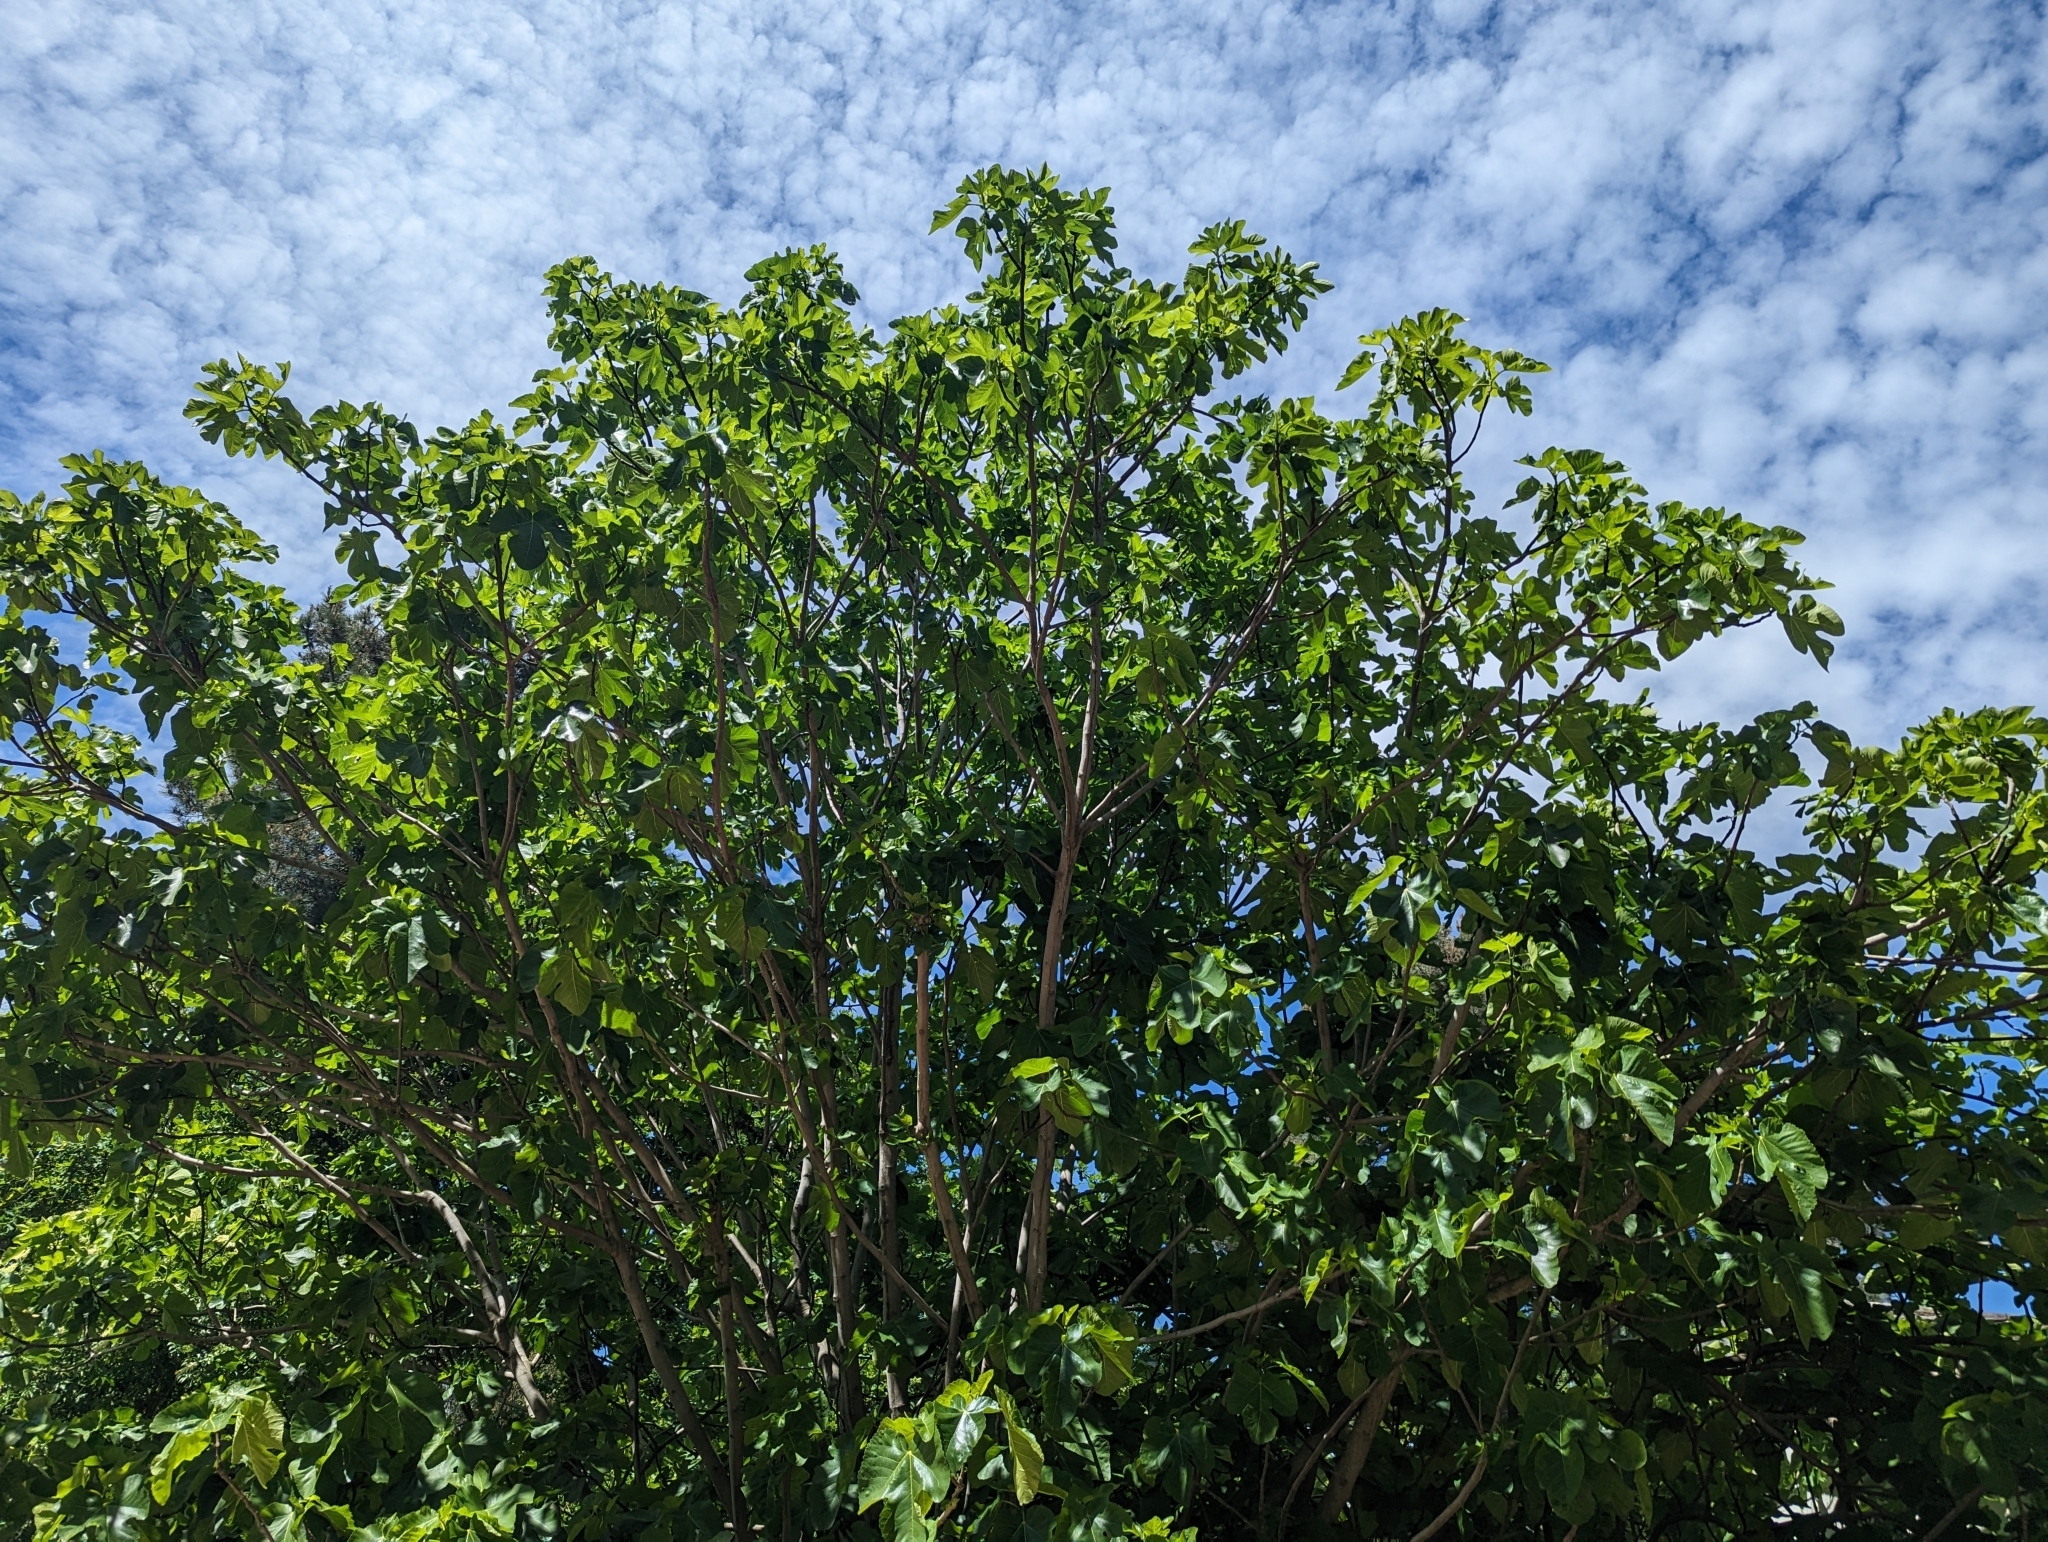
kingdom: Plantae
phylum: Tracheophyta
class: Magnoliopsida
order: Rosales
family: Moraceae
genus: Ficus
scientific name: Ficus carica
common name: Fig
